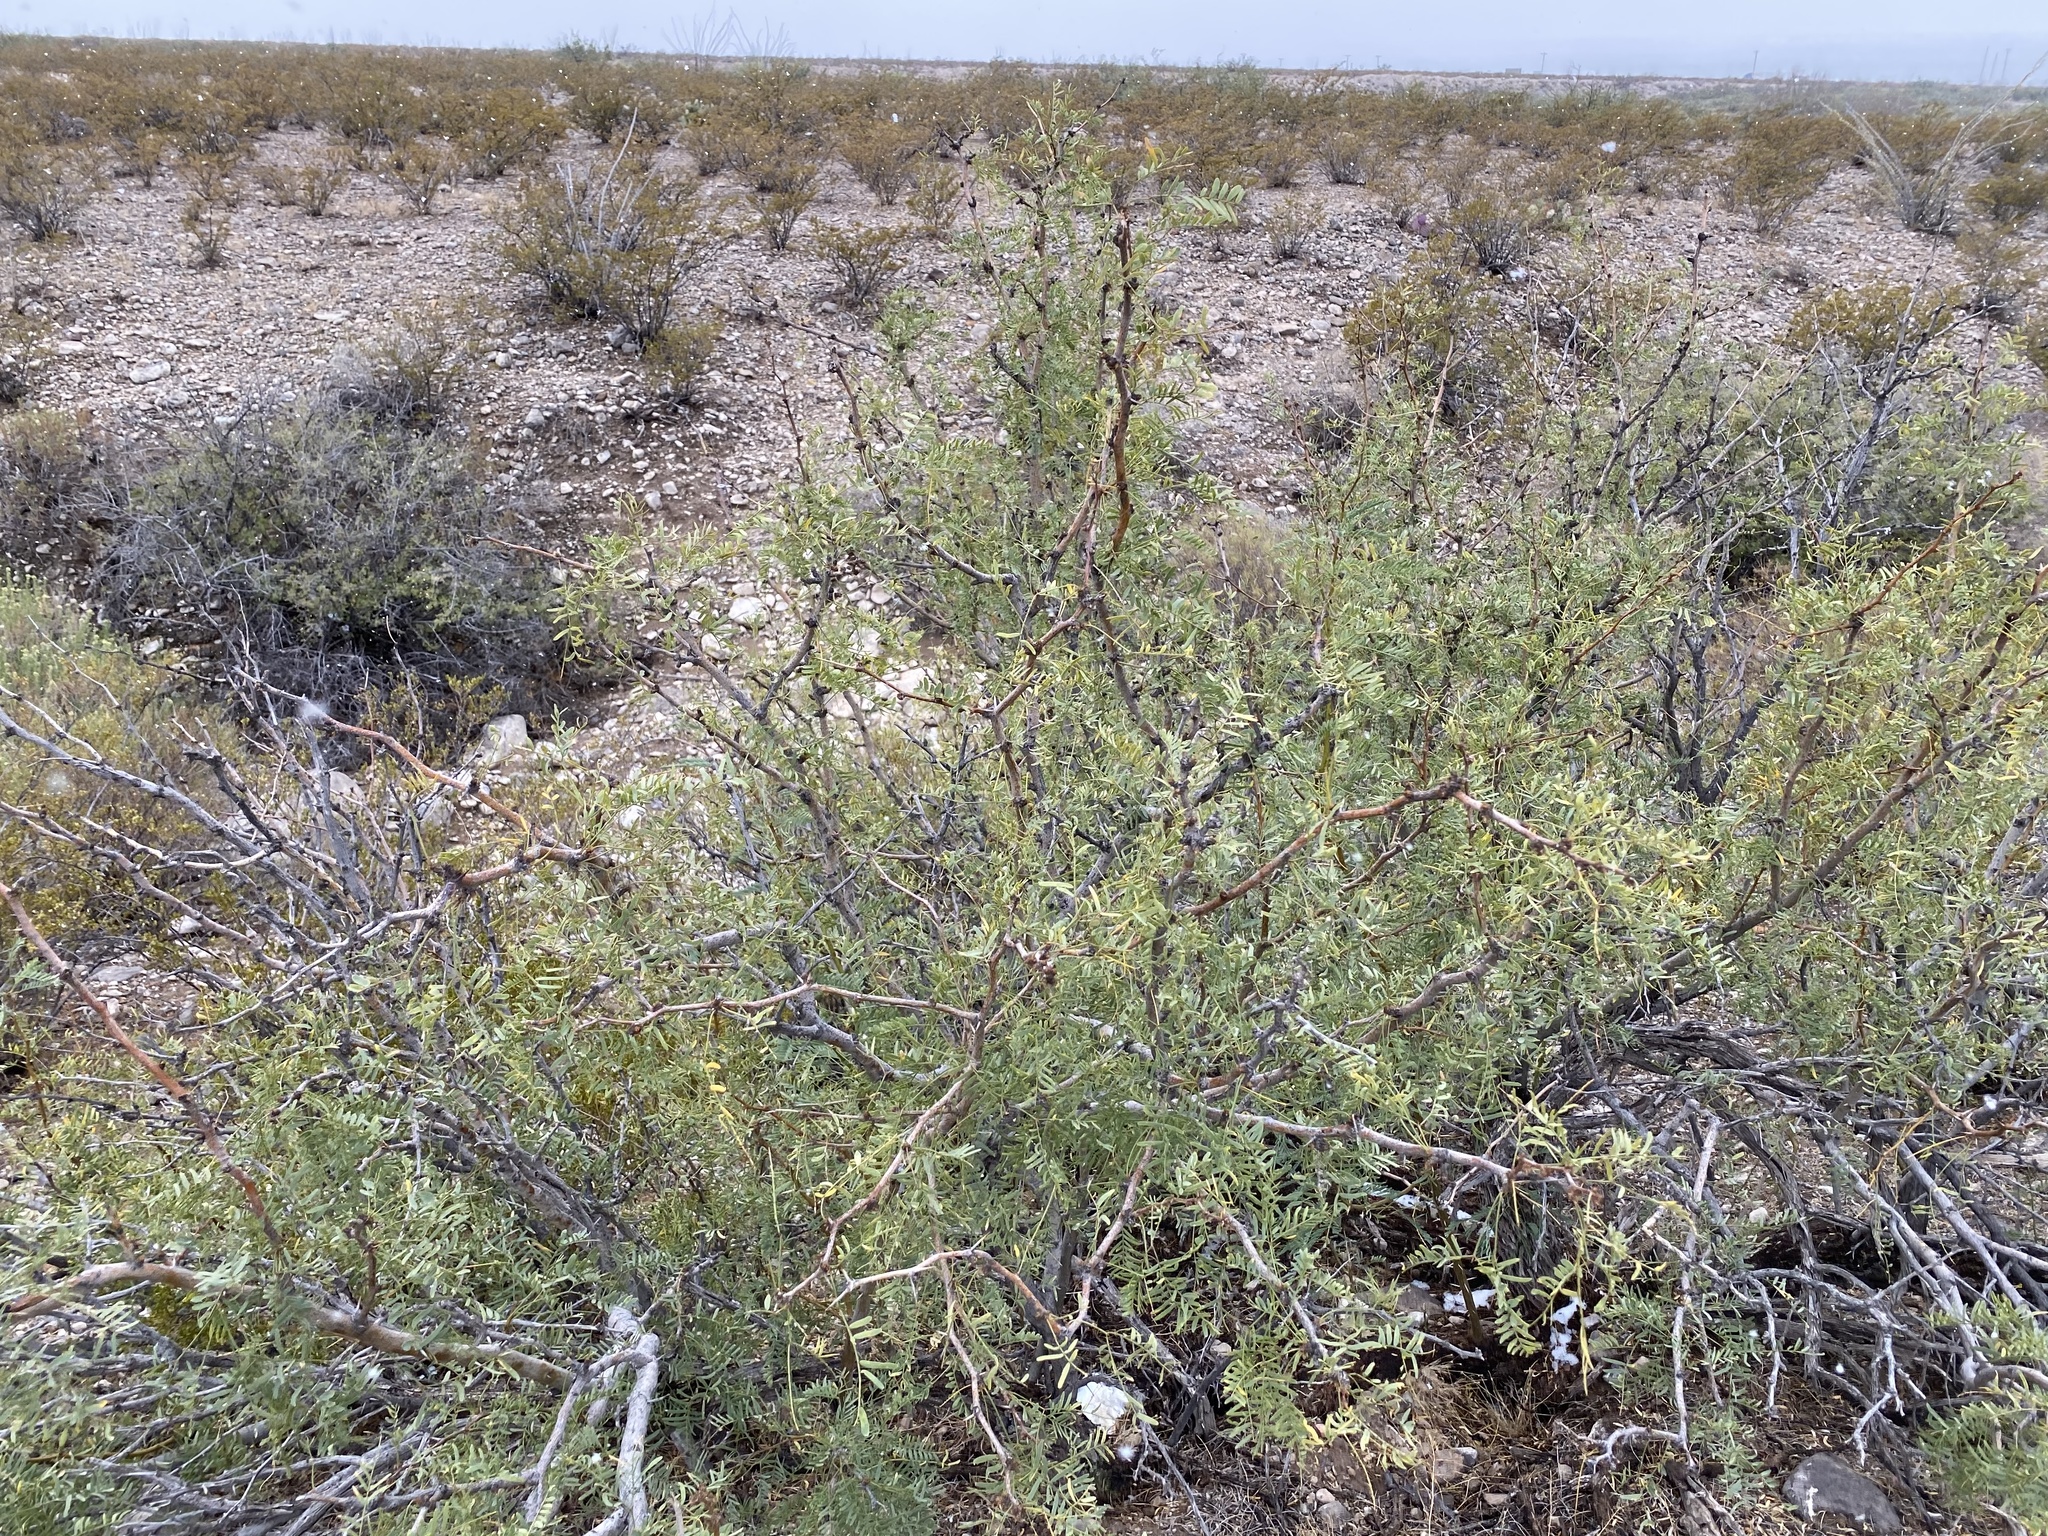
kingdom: Plantae
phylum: Tracheophyta
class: Magnoliopsida
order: Fabales
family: Fabaceae
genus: Prosopis
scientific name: Prosopis glandulosa
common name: Honey mesquite
